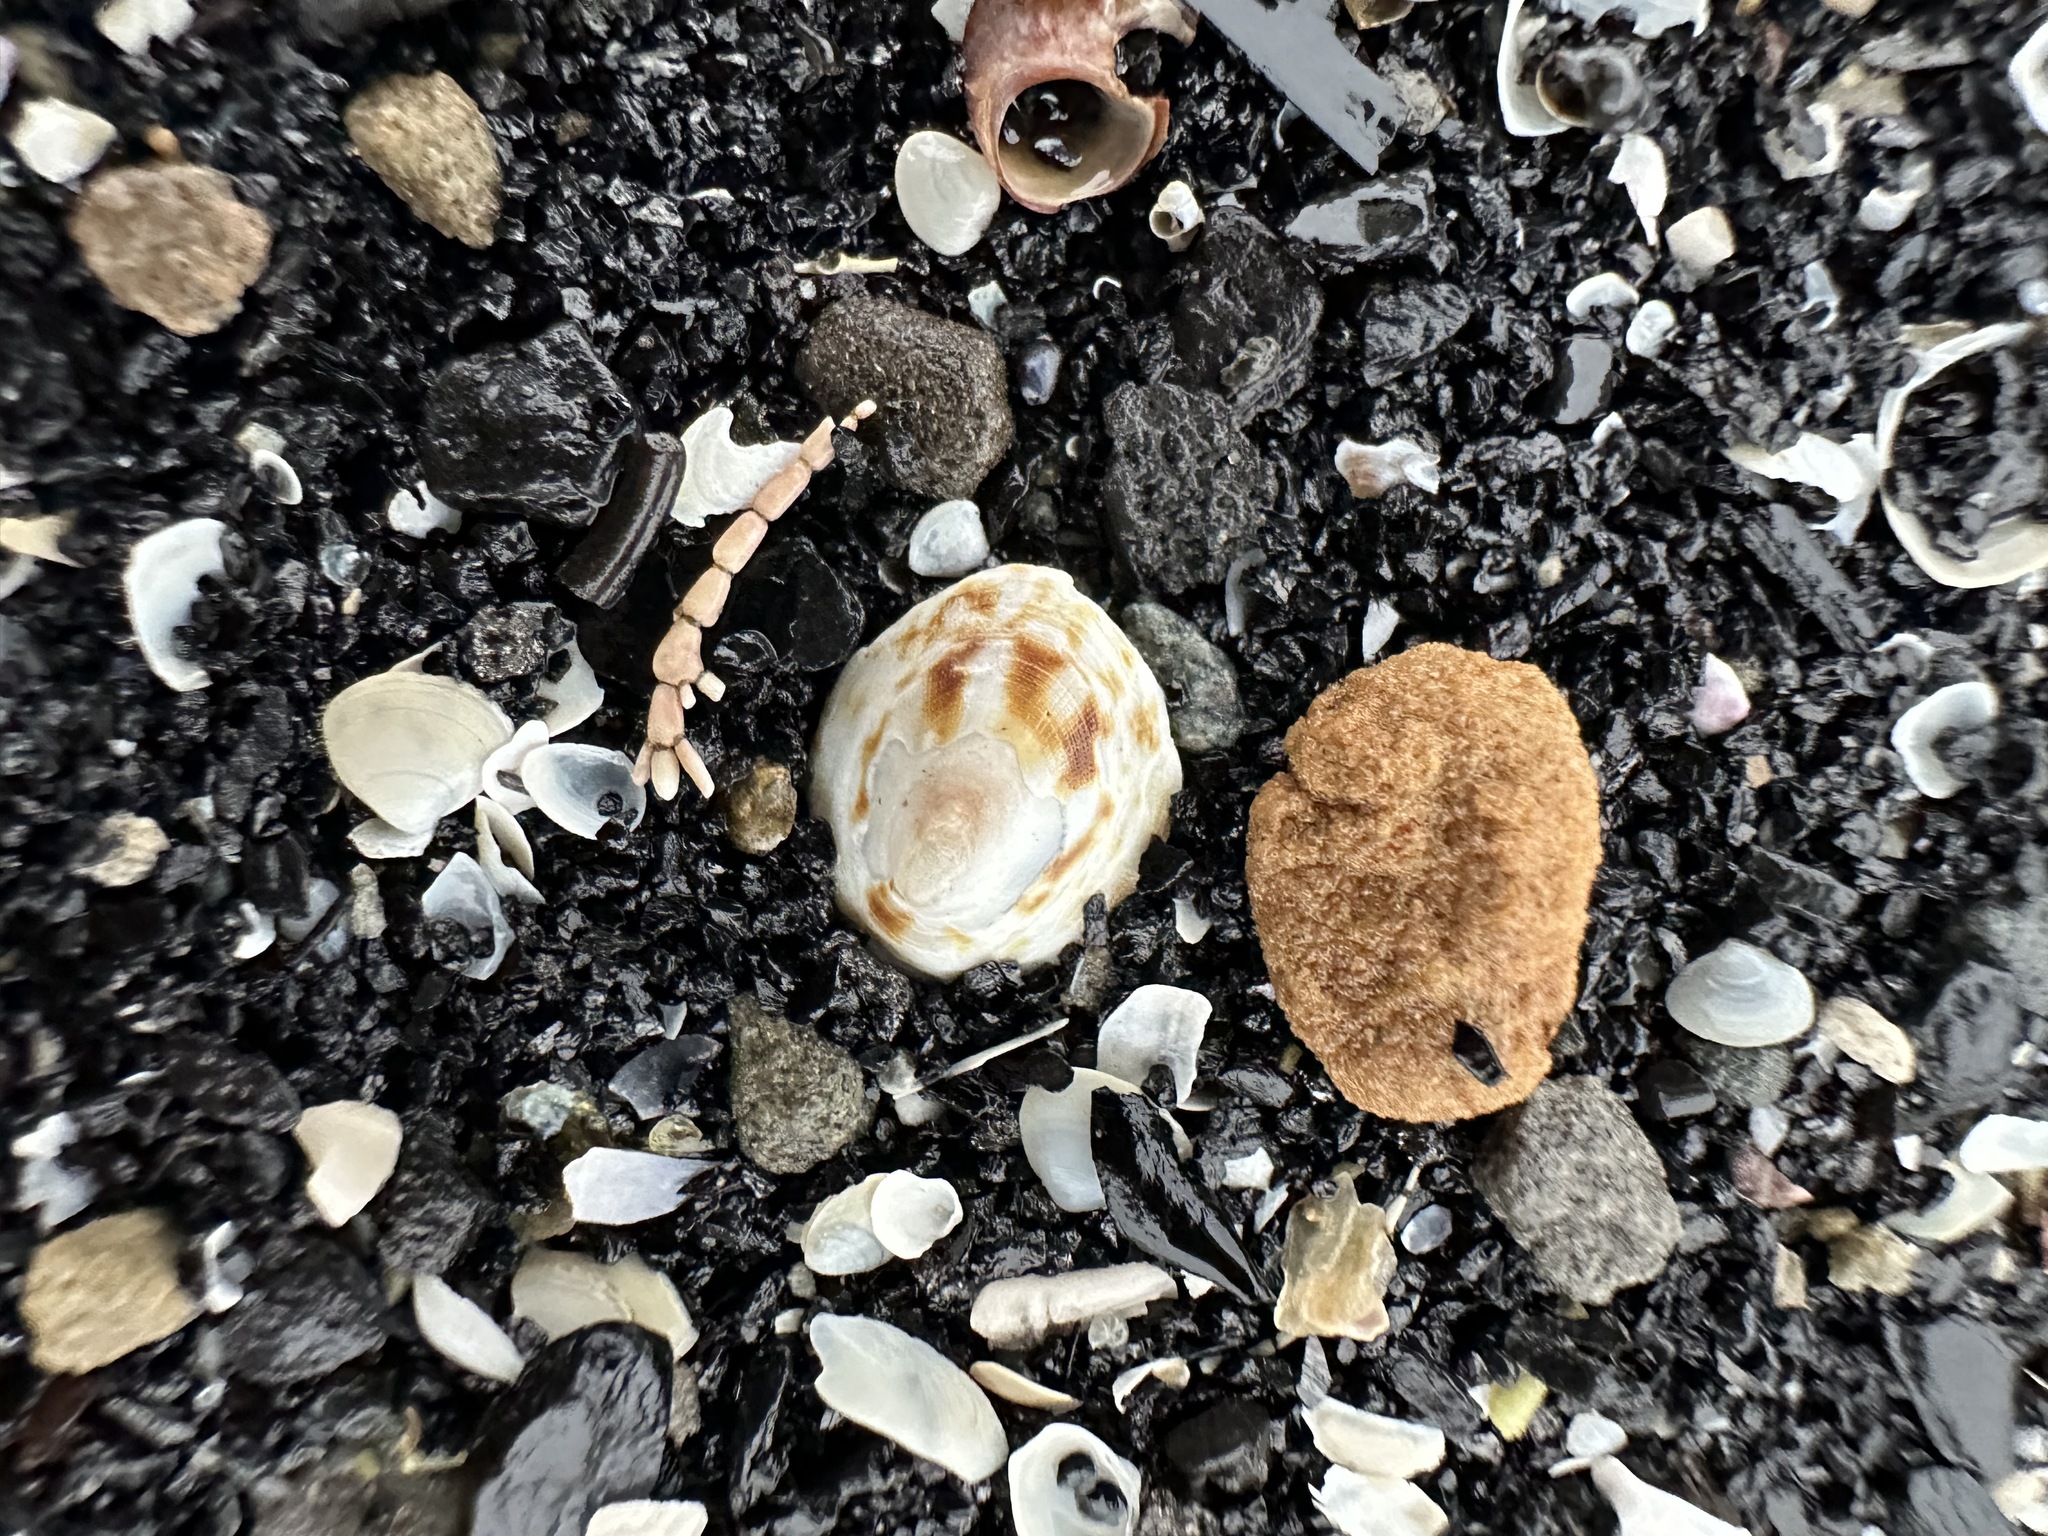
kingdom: Animalia
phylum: Mollusca
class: Gastropoda
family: Lottiidae
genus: Testudinalia
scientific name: Testudinalia testudinalis
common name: Common tortoiseshell limpet
